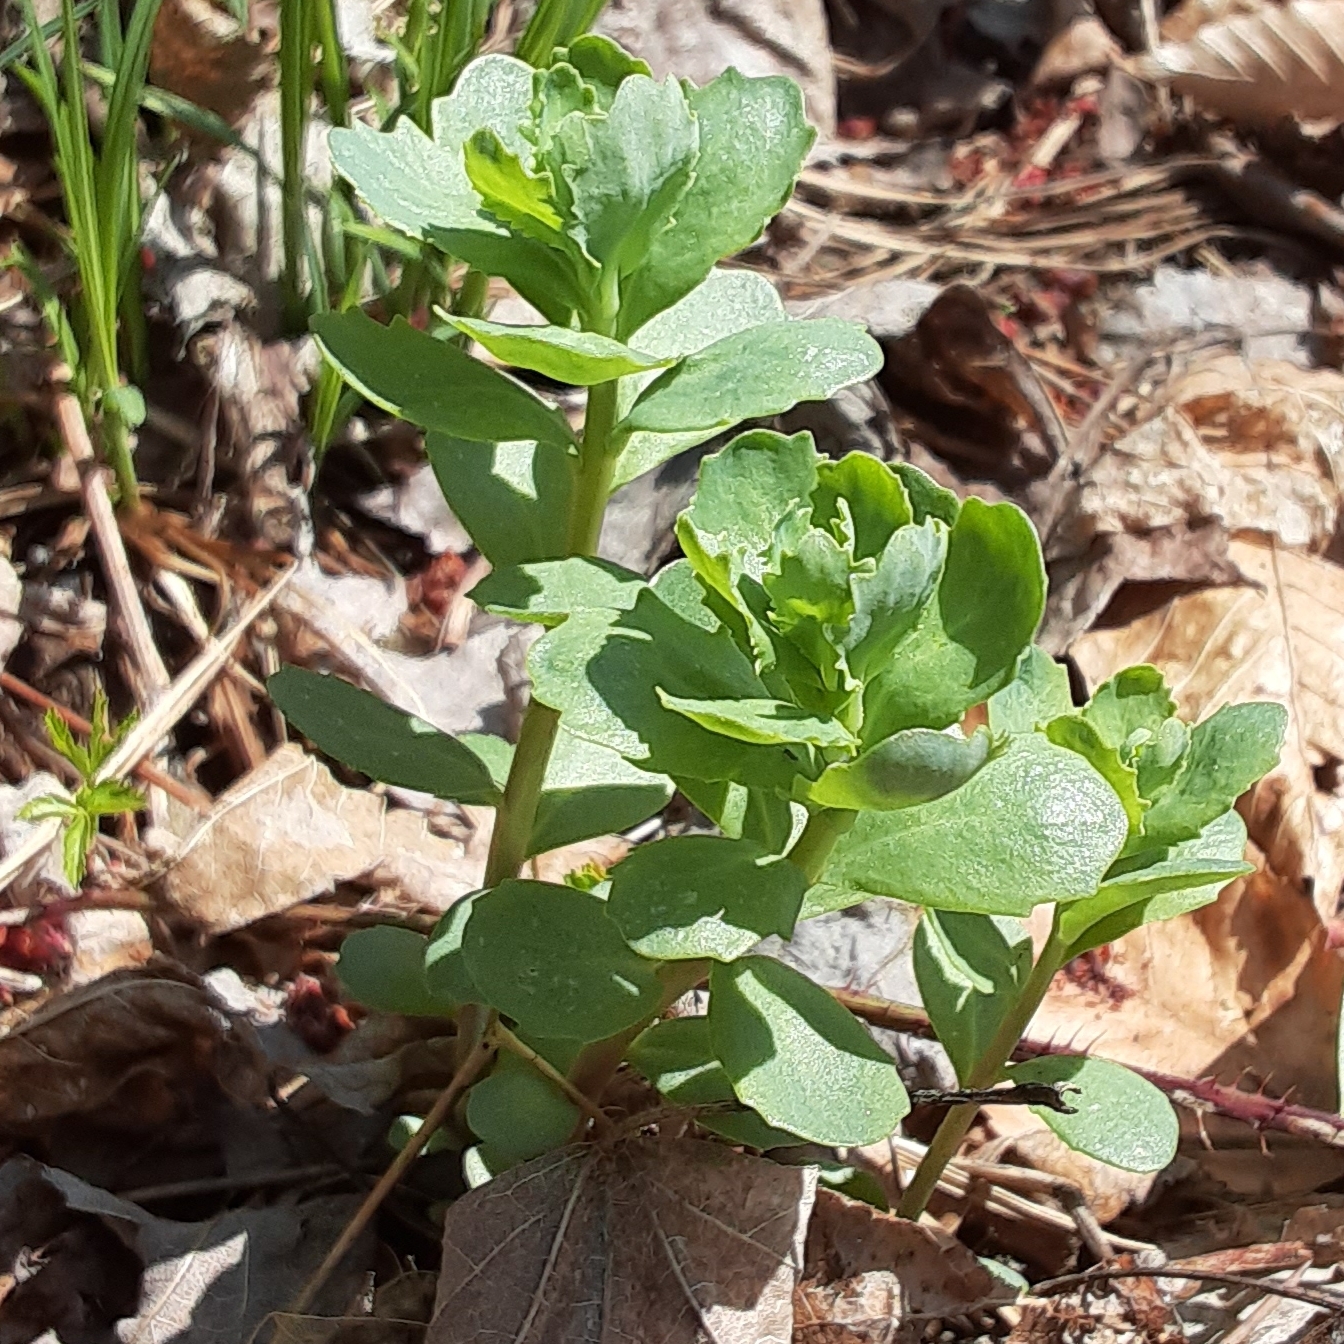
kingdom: Plantae
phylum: Tracheophyta
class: Magnoliopsida
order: Saxifragales
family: Crassulaceae
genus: Hylotelephium
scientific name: Hylotelephium telephium
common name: Live-forever
